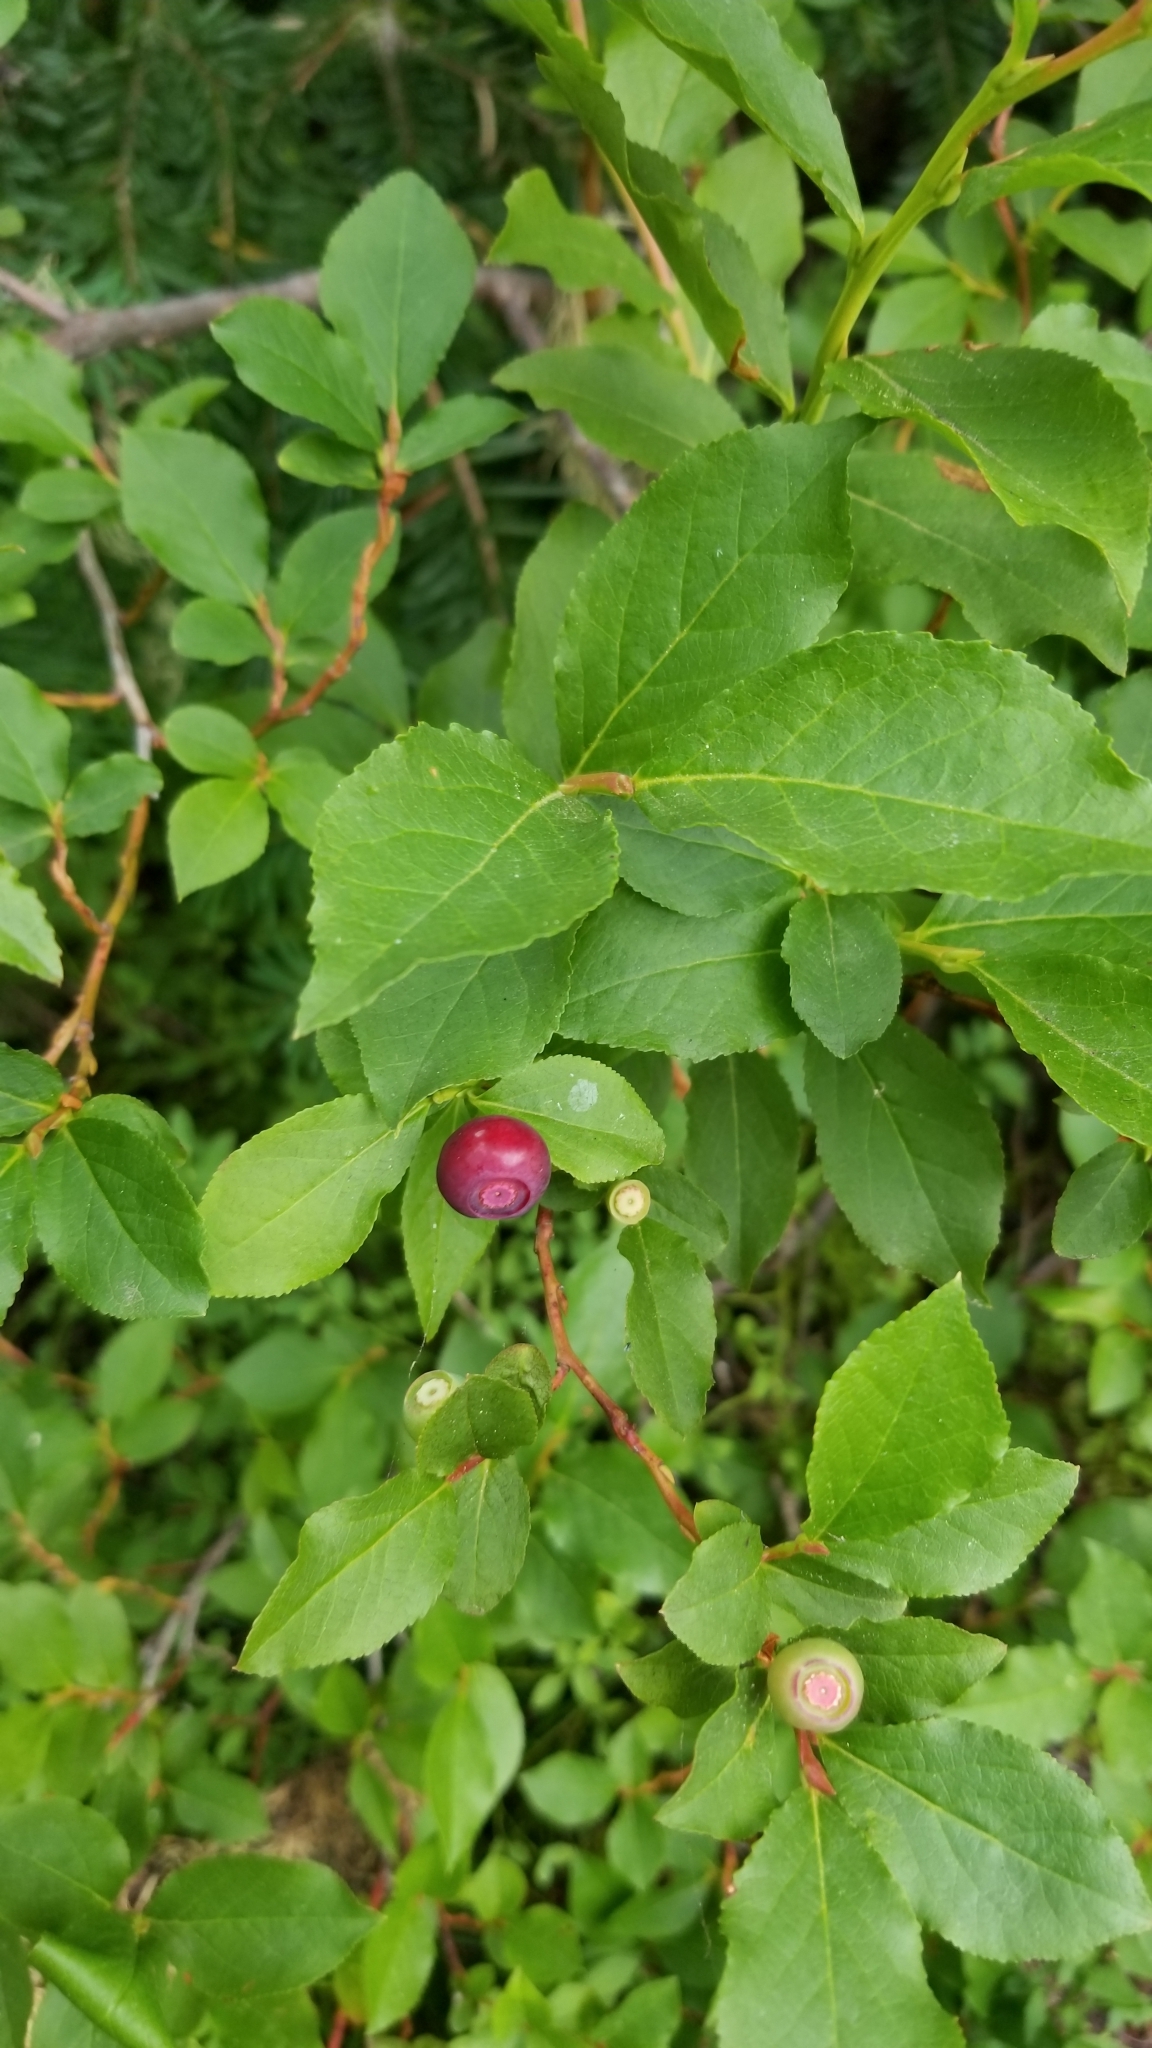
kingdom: Plantae
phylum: Tracheophyta
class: Magnoliopsida
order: Ericales
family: Ericaceae
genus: Vaccinium
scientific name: Vaccinium membranaceum
